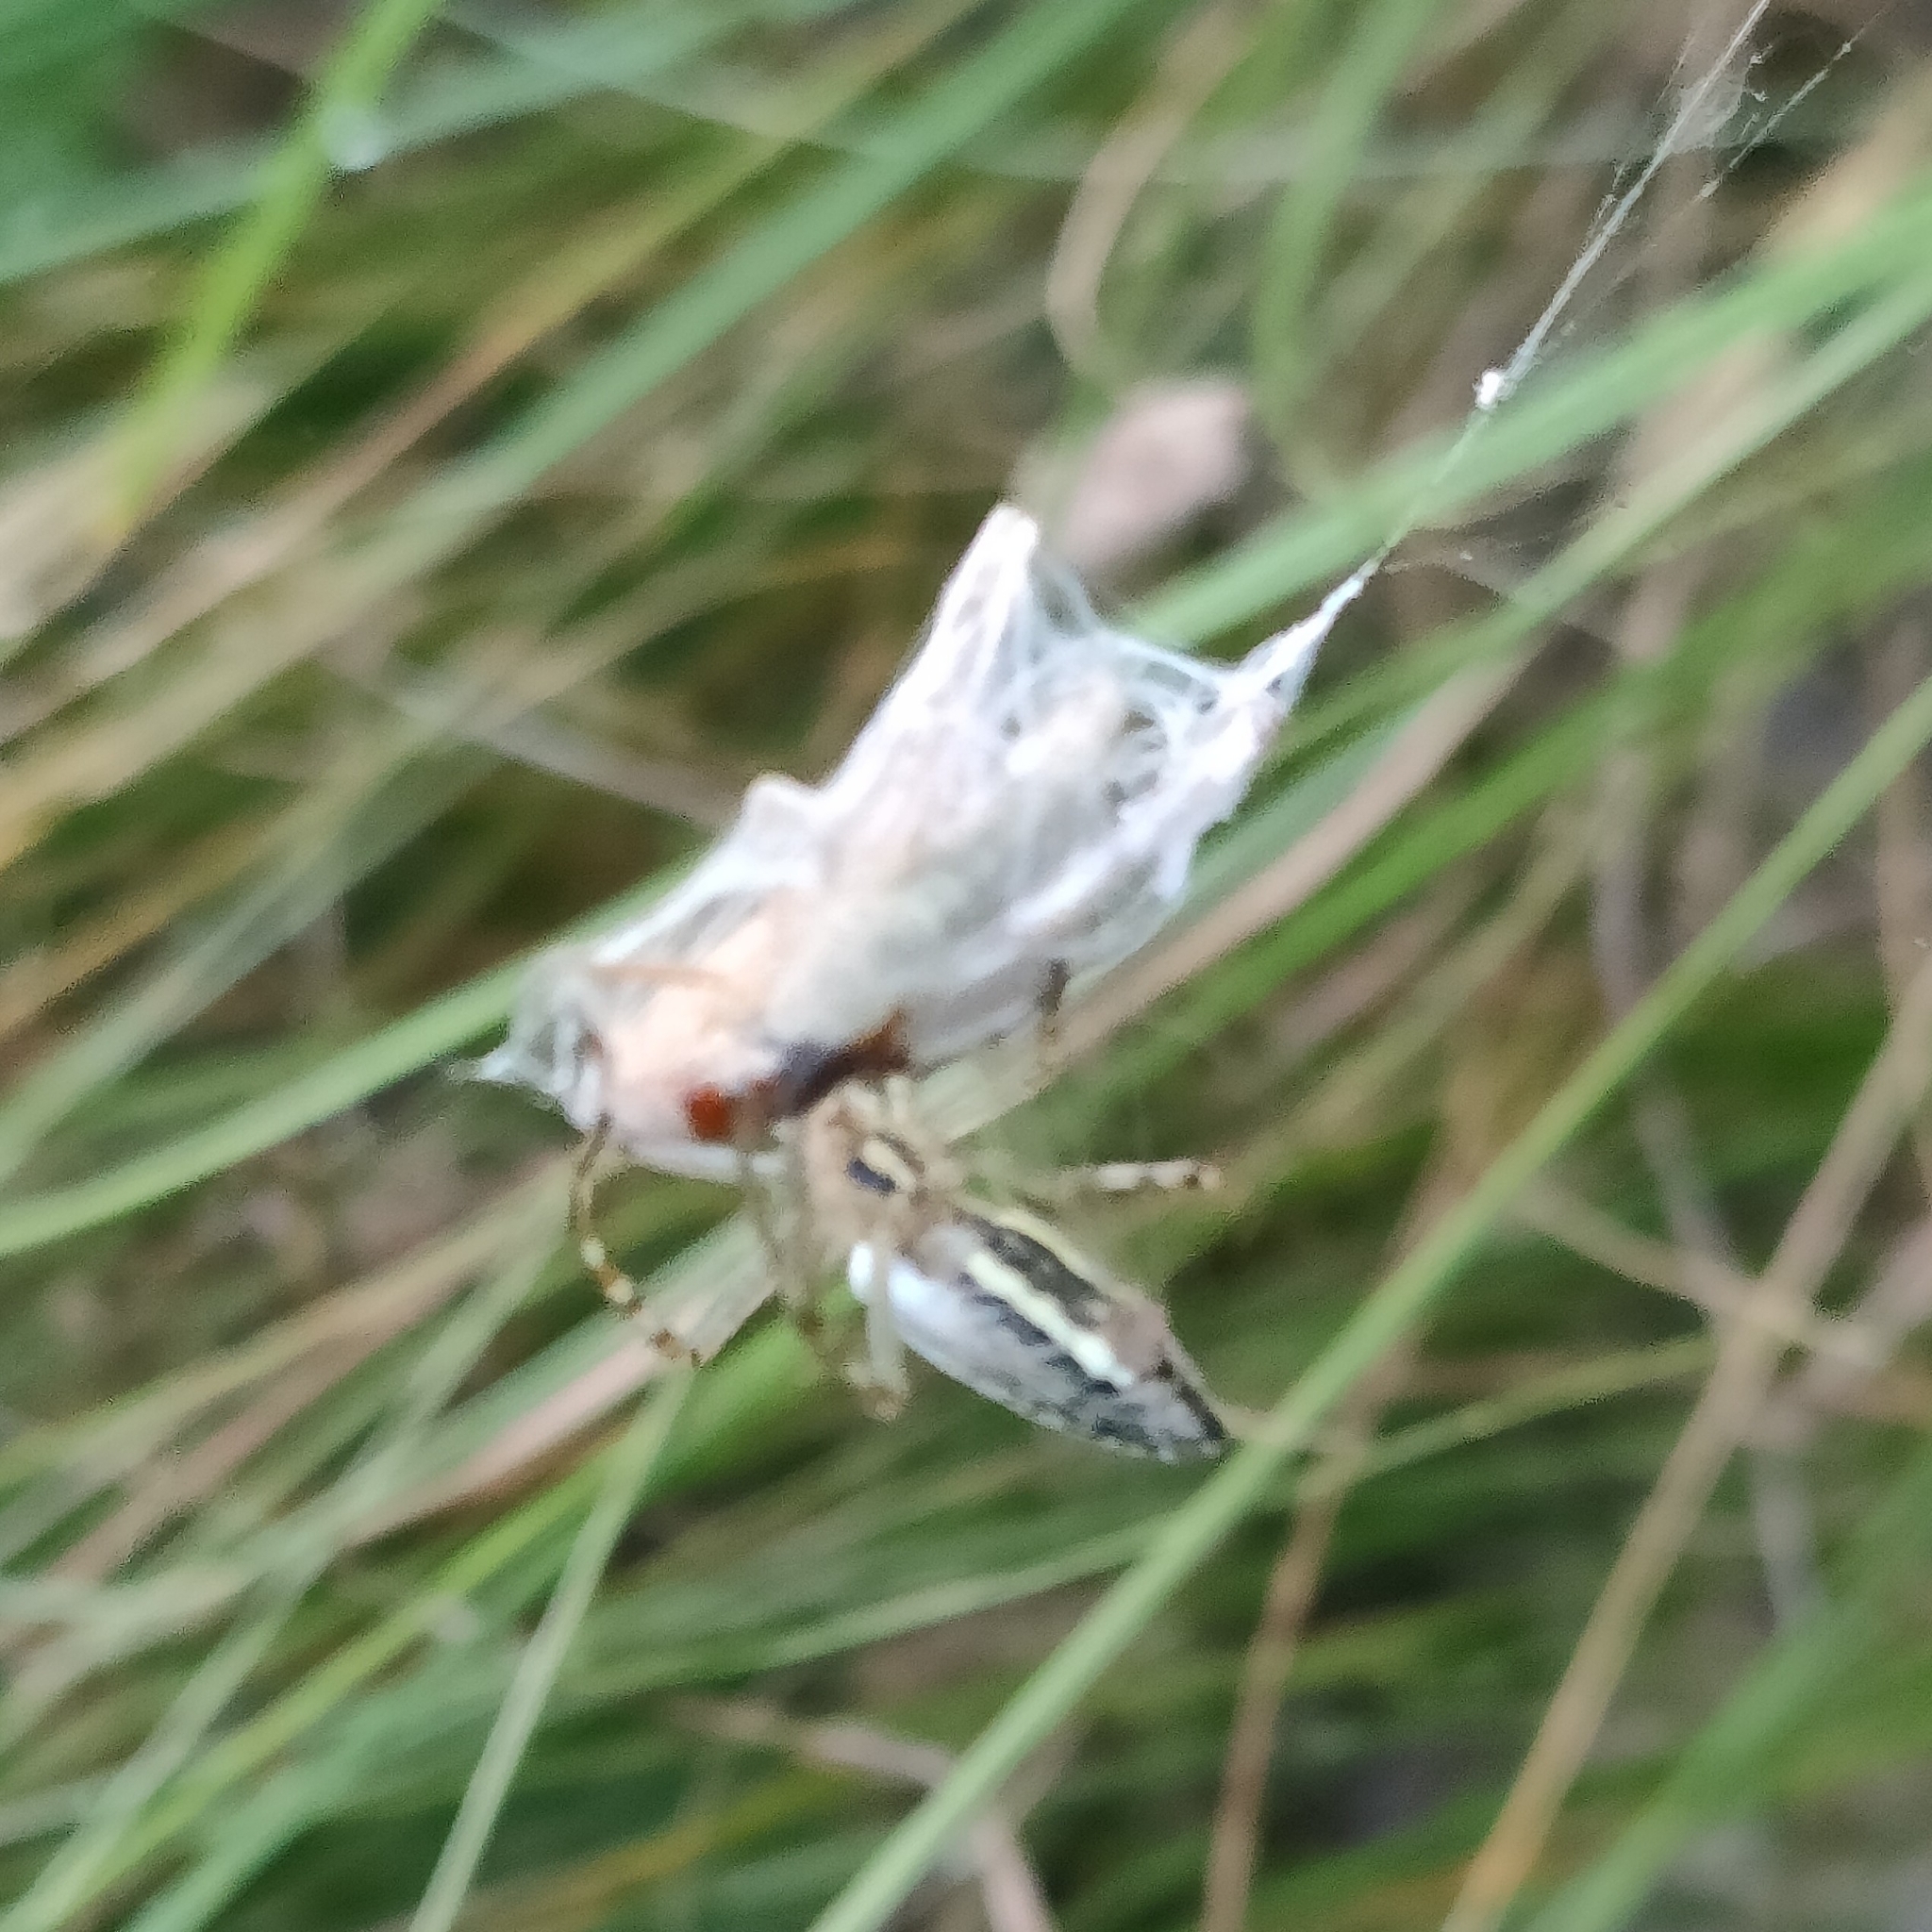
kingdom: Animalia
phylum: Arthropoda
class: Arachnida
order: Araneae
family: Araneidae
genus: Argiope
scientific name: Argiope bruennichi
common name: Wasp spider
